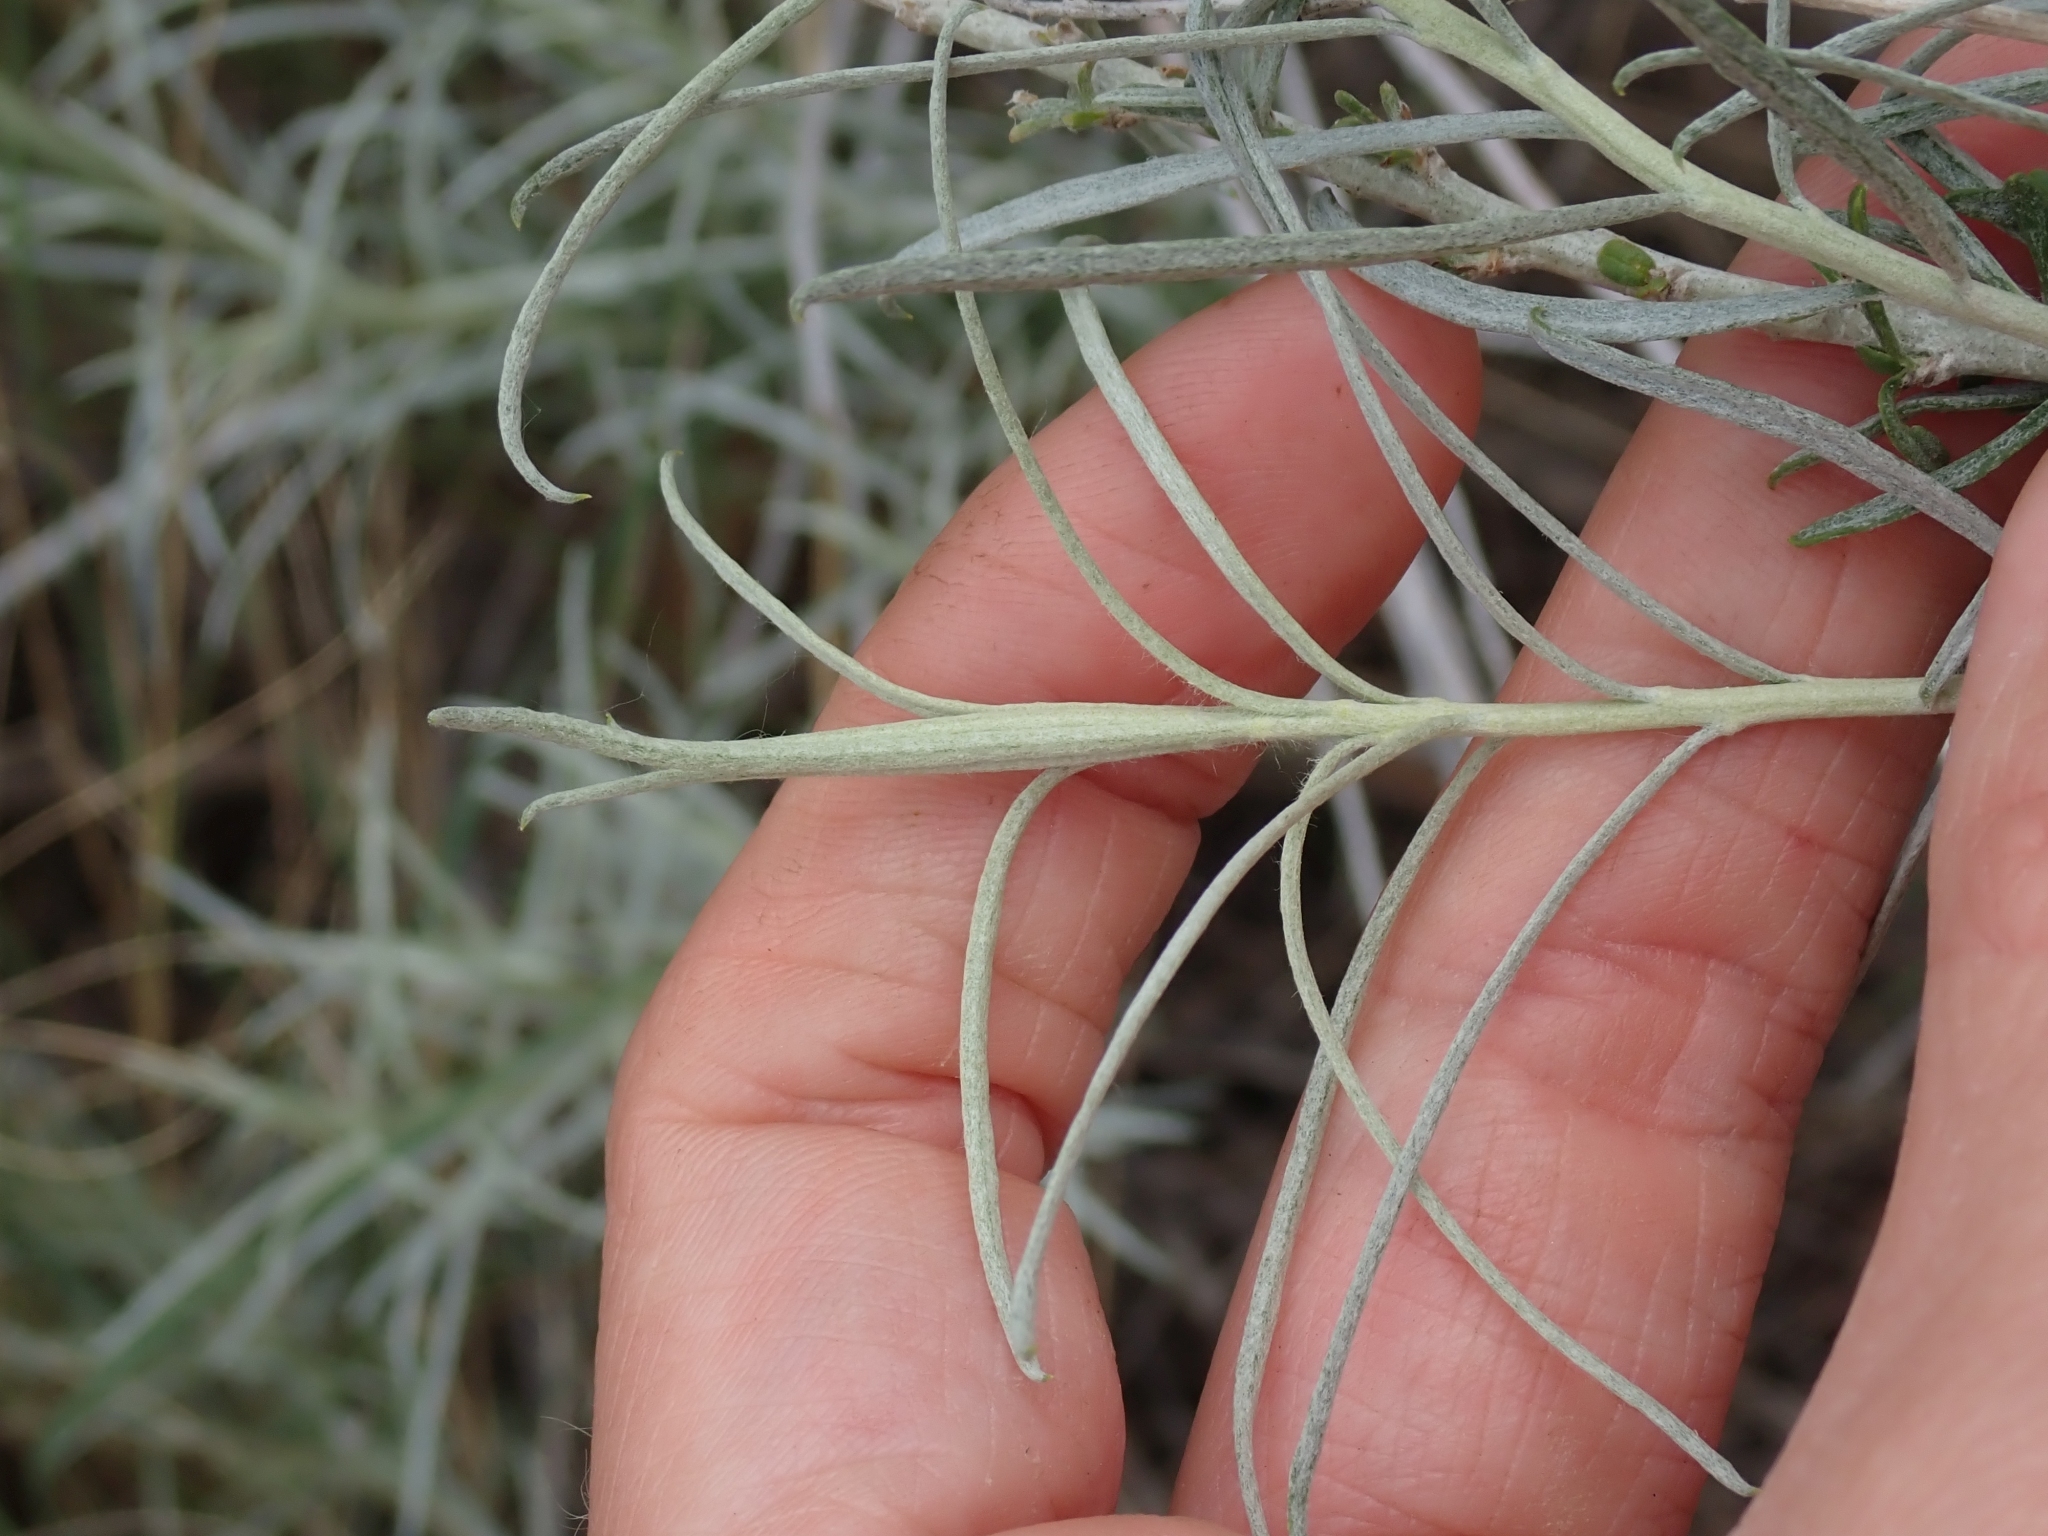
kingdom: Plantae
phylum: Tracheophyta
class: Magnoliopsida
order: Asterales
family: Asteraceae
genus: Ericameria
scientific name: Ericameria nauseosa
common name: Rubber rabbitbrush
